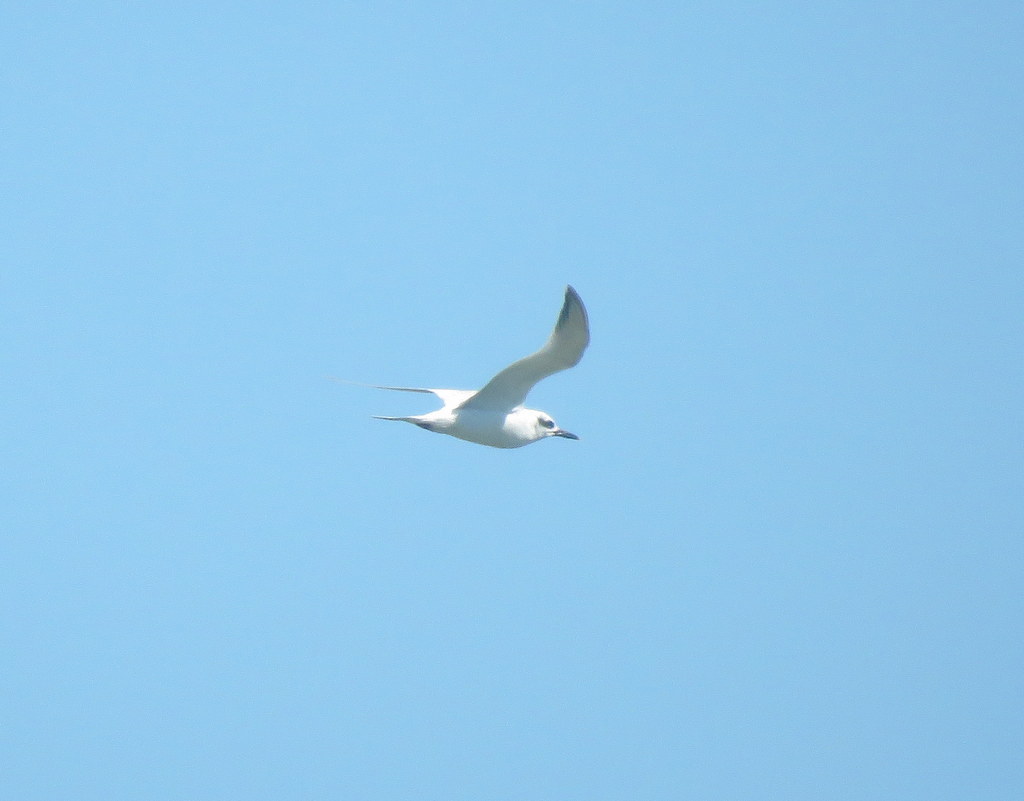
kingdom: Animalia
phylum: Chordata
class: Aves
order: Charadriiformes
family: Laridae
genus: Sterna
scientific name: Sterna trudeaui
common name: Snowy-crowned tern
